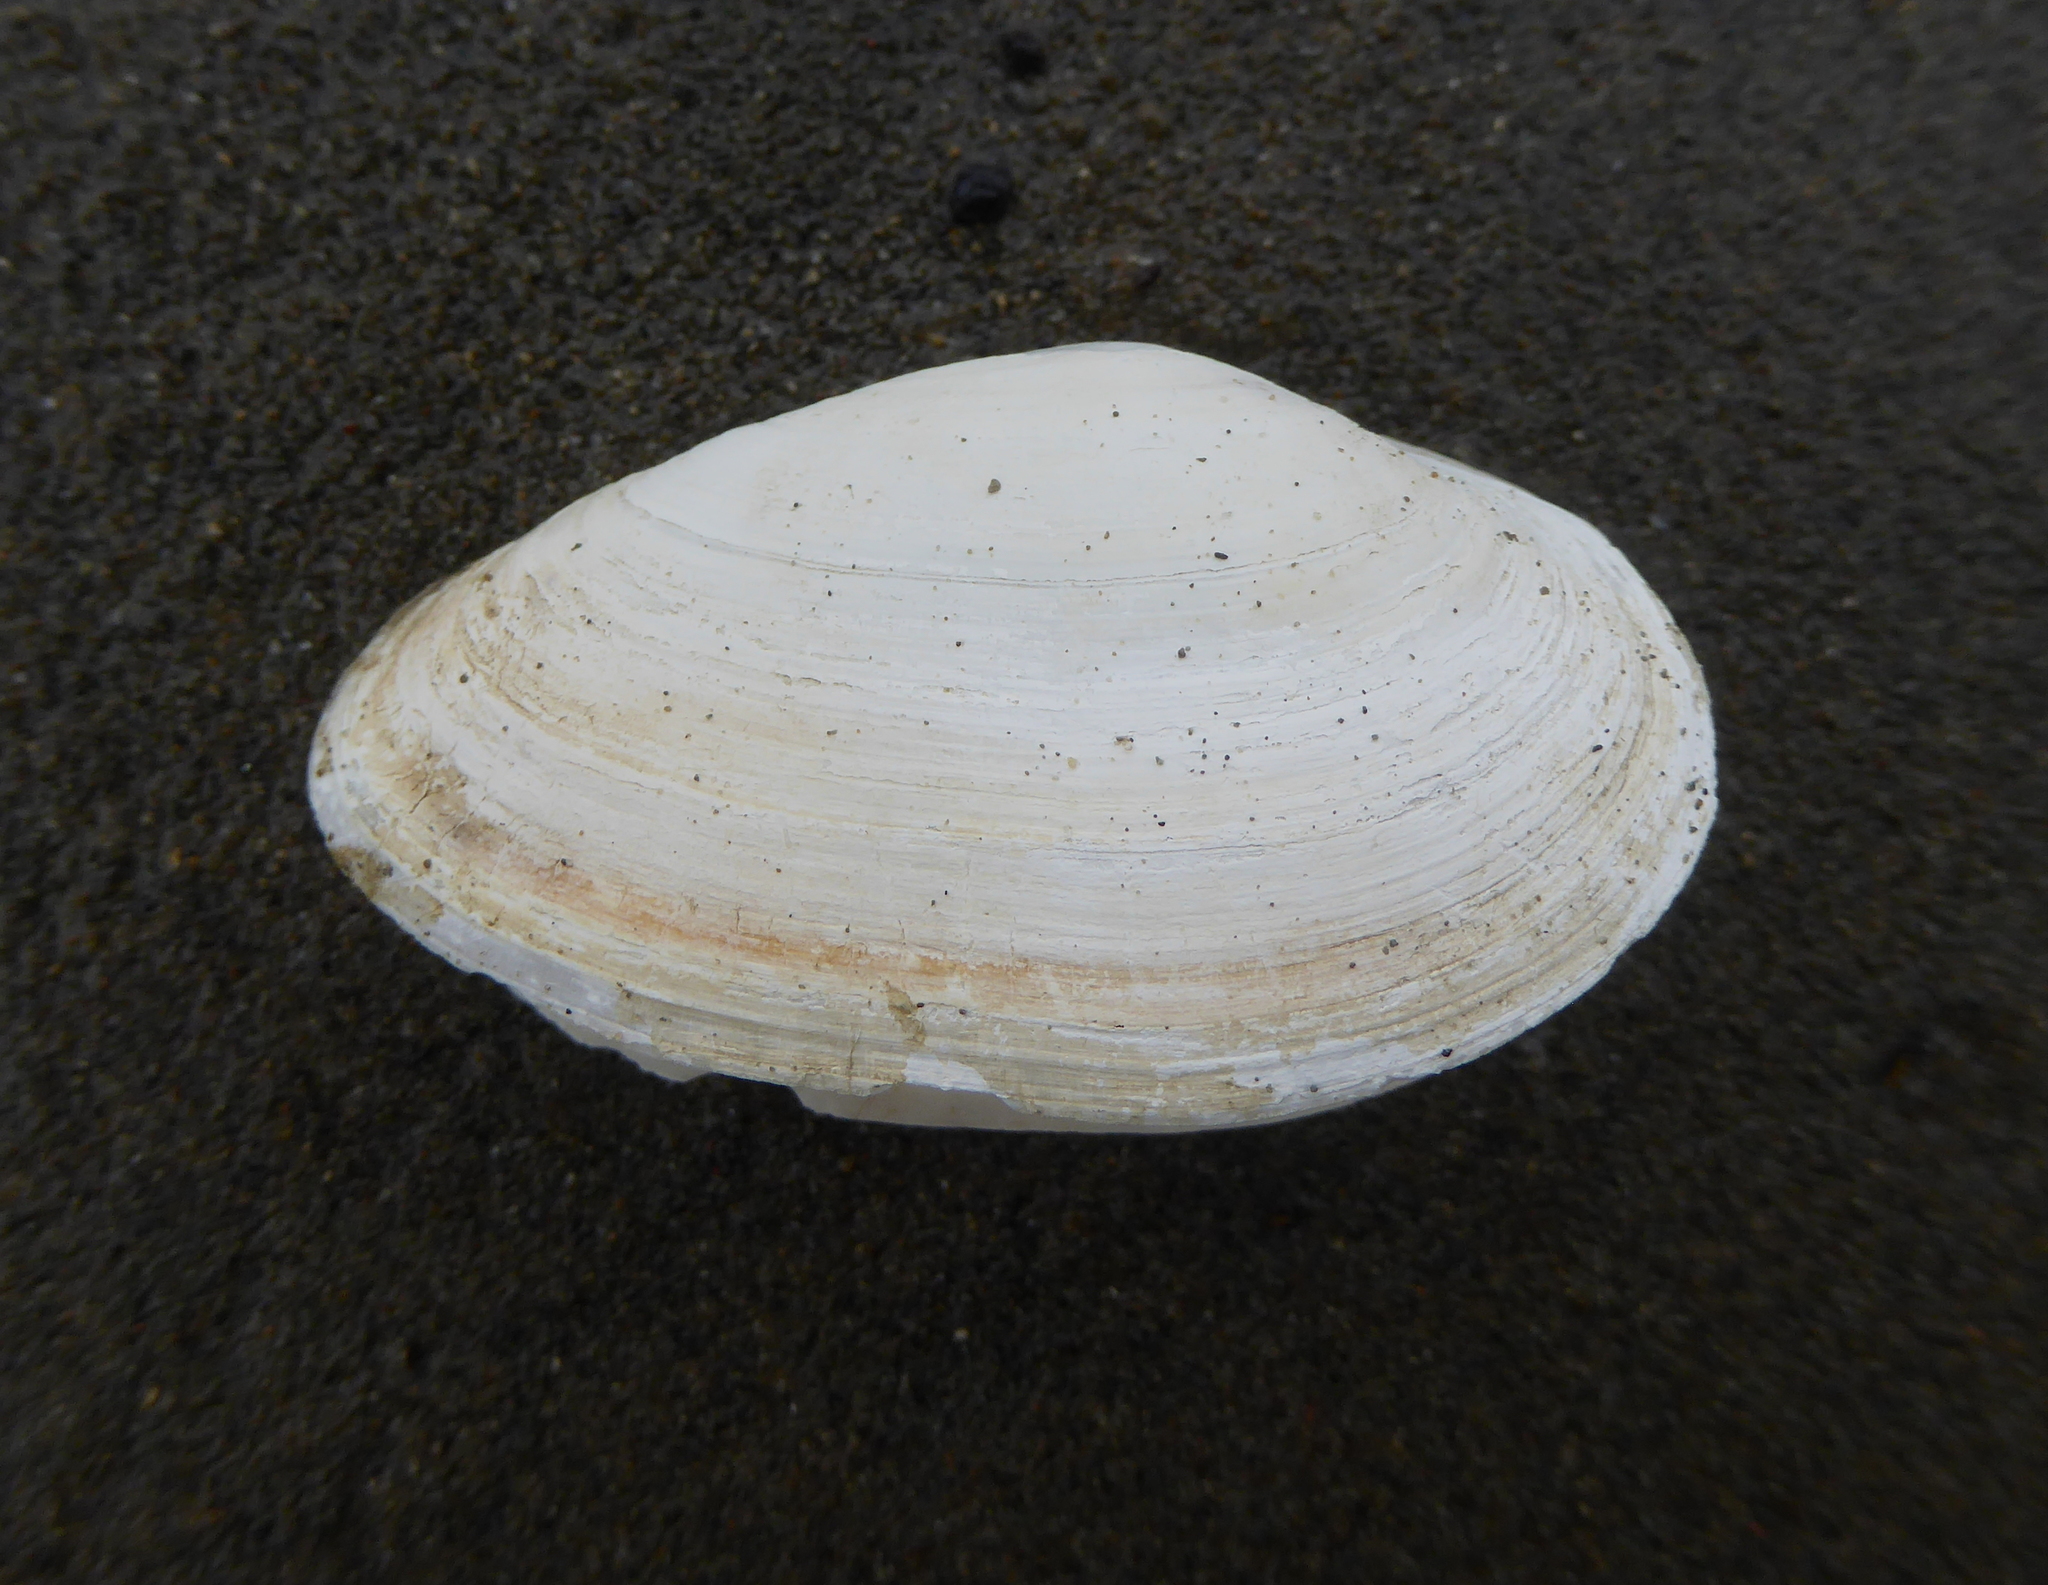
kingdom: Animalia
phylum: Mollusca
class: Bivalvia
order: Myida
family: Myidae
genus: Mya
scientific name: Mya arenaria
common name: Soft-shelled clam
